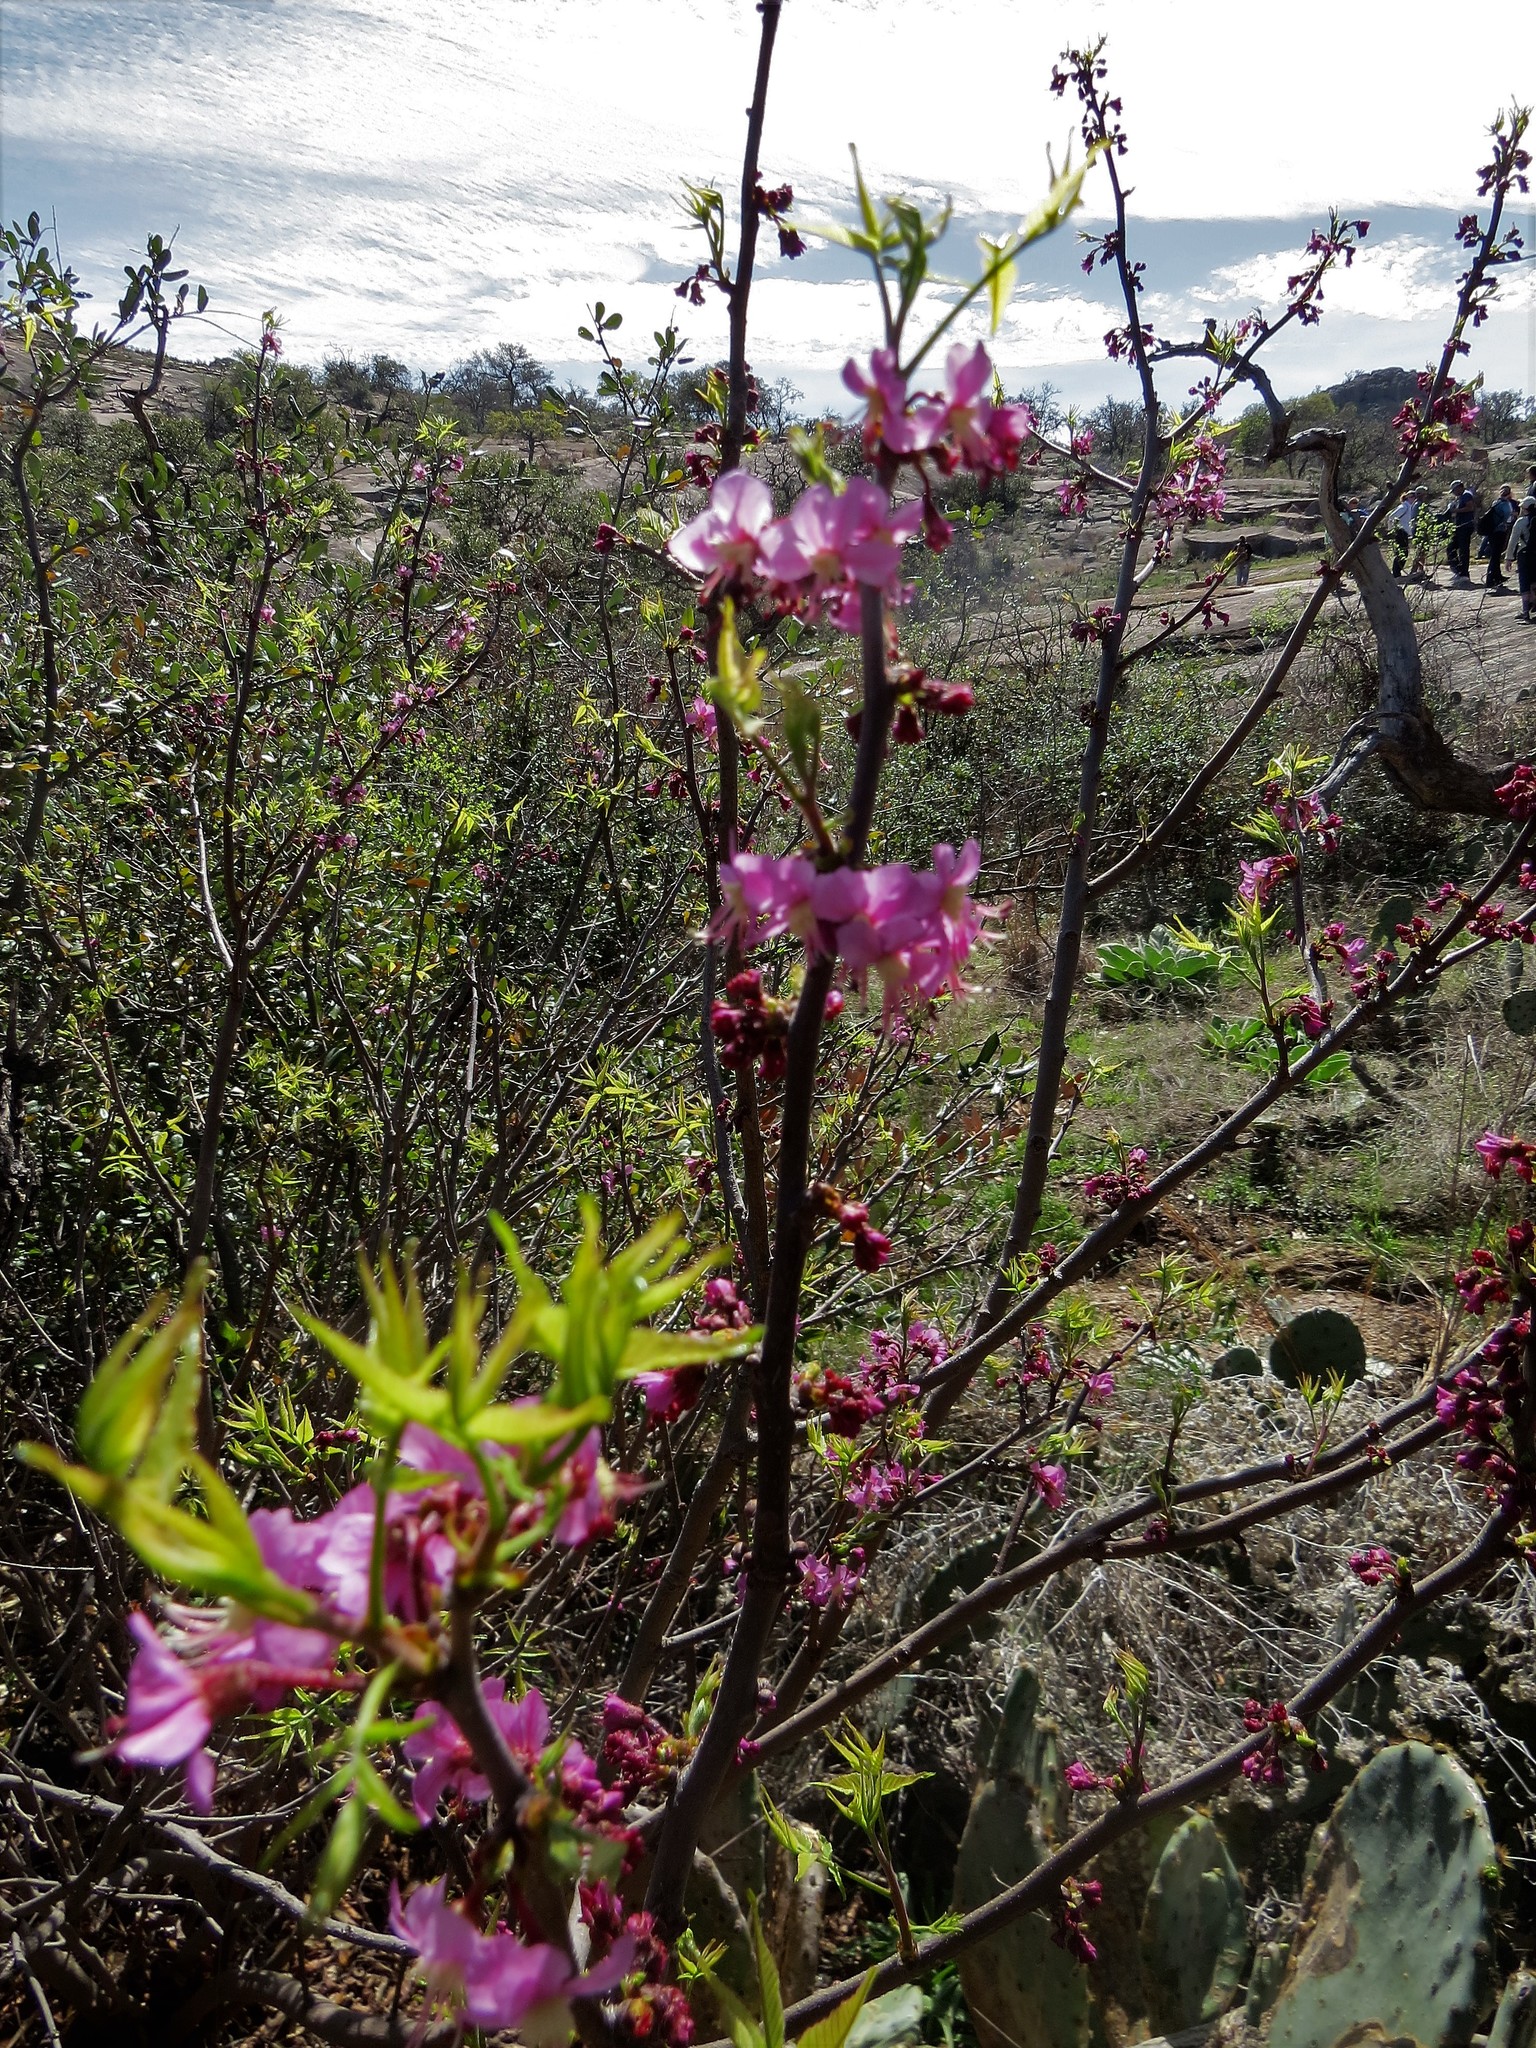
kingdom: Plantae
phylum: Tracheophyta
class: Magnoliopsida
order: Sapindales
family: Sapindaceae
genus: Ungnadia
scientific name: Ungnadia speciosa
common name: Texas-buckeye
